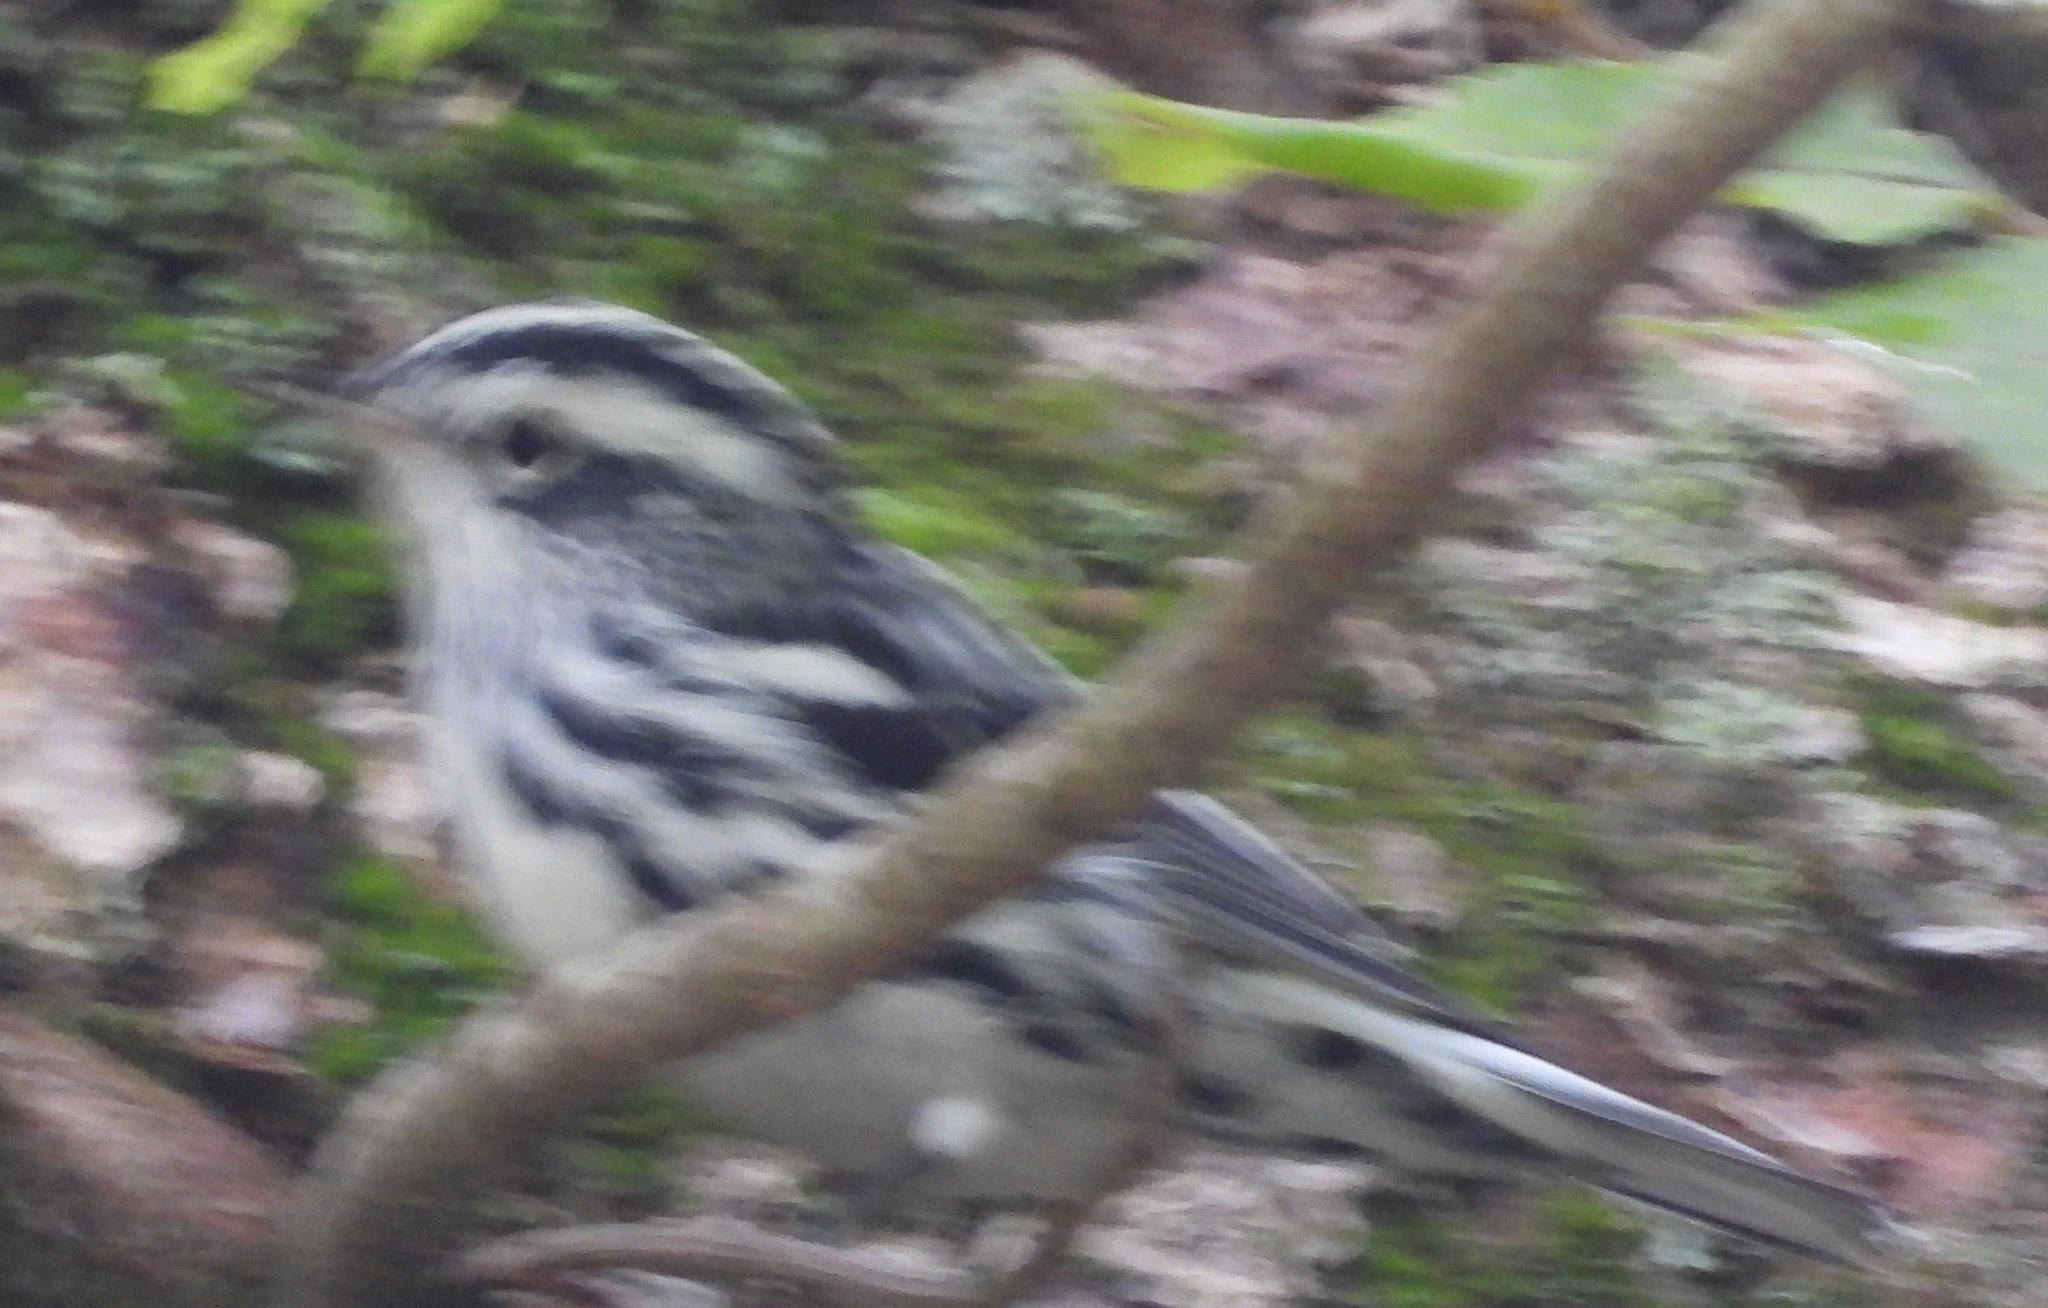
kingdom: Animalia
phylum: Chordata
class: Aves
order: Passeriformes
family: Parulidae
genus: Mniotilta
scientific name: Mniotilta varia
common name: Black-and-white warbler
